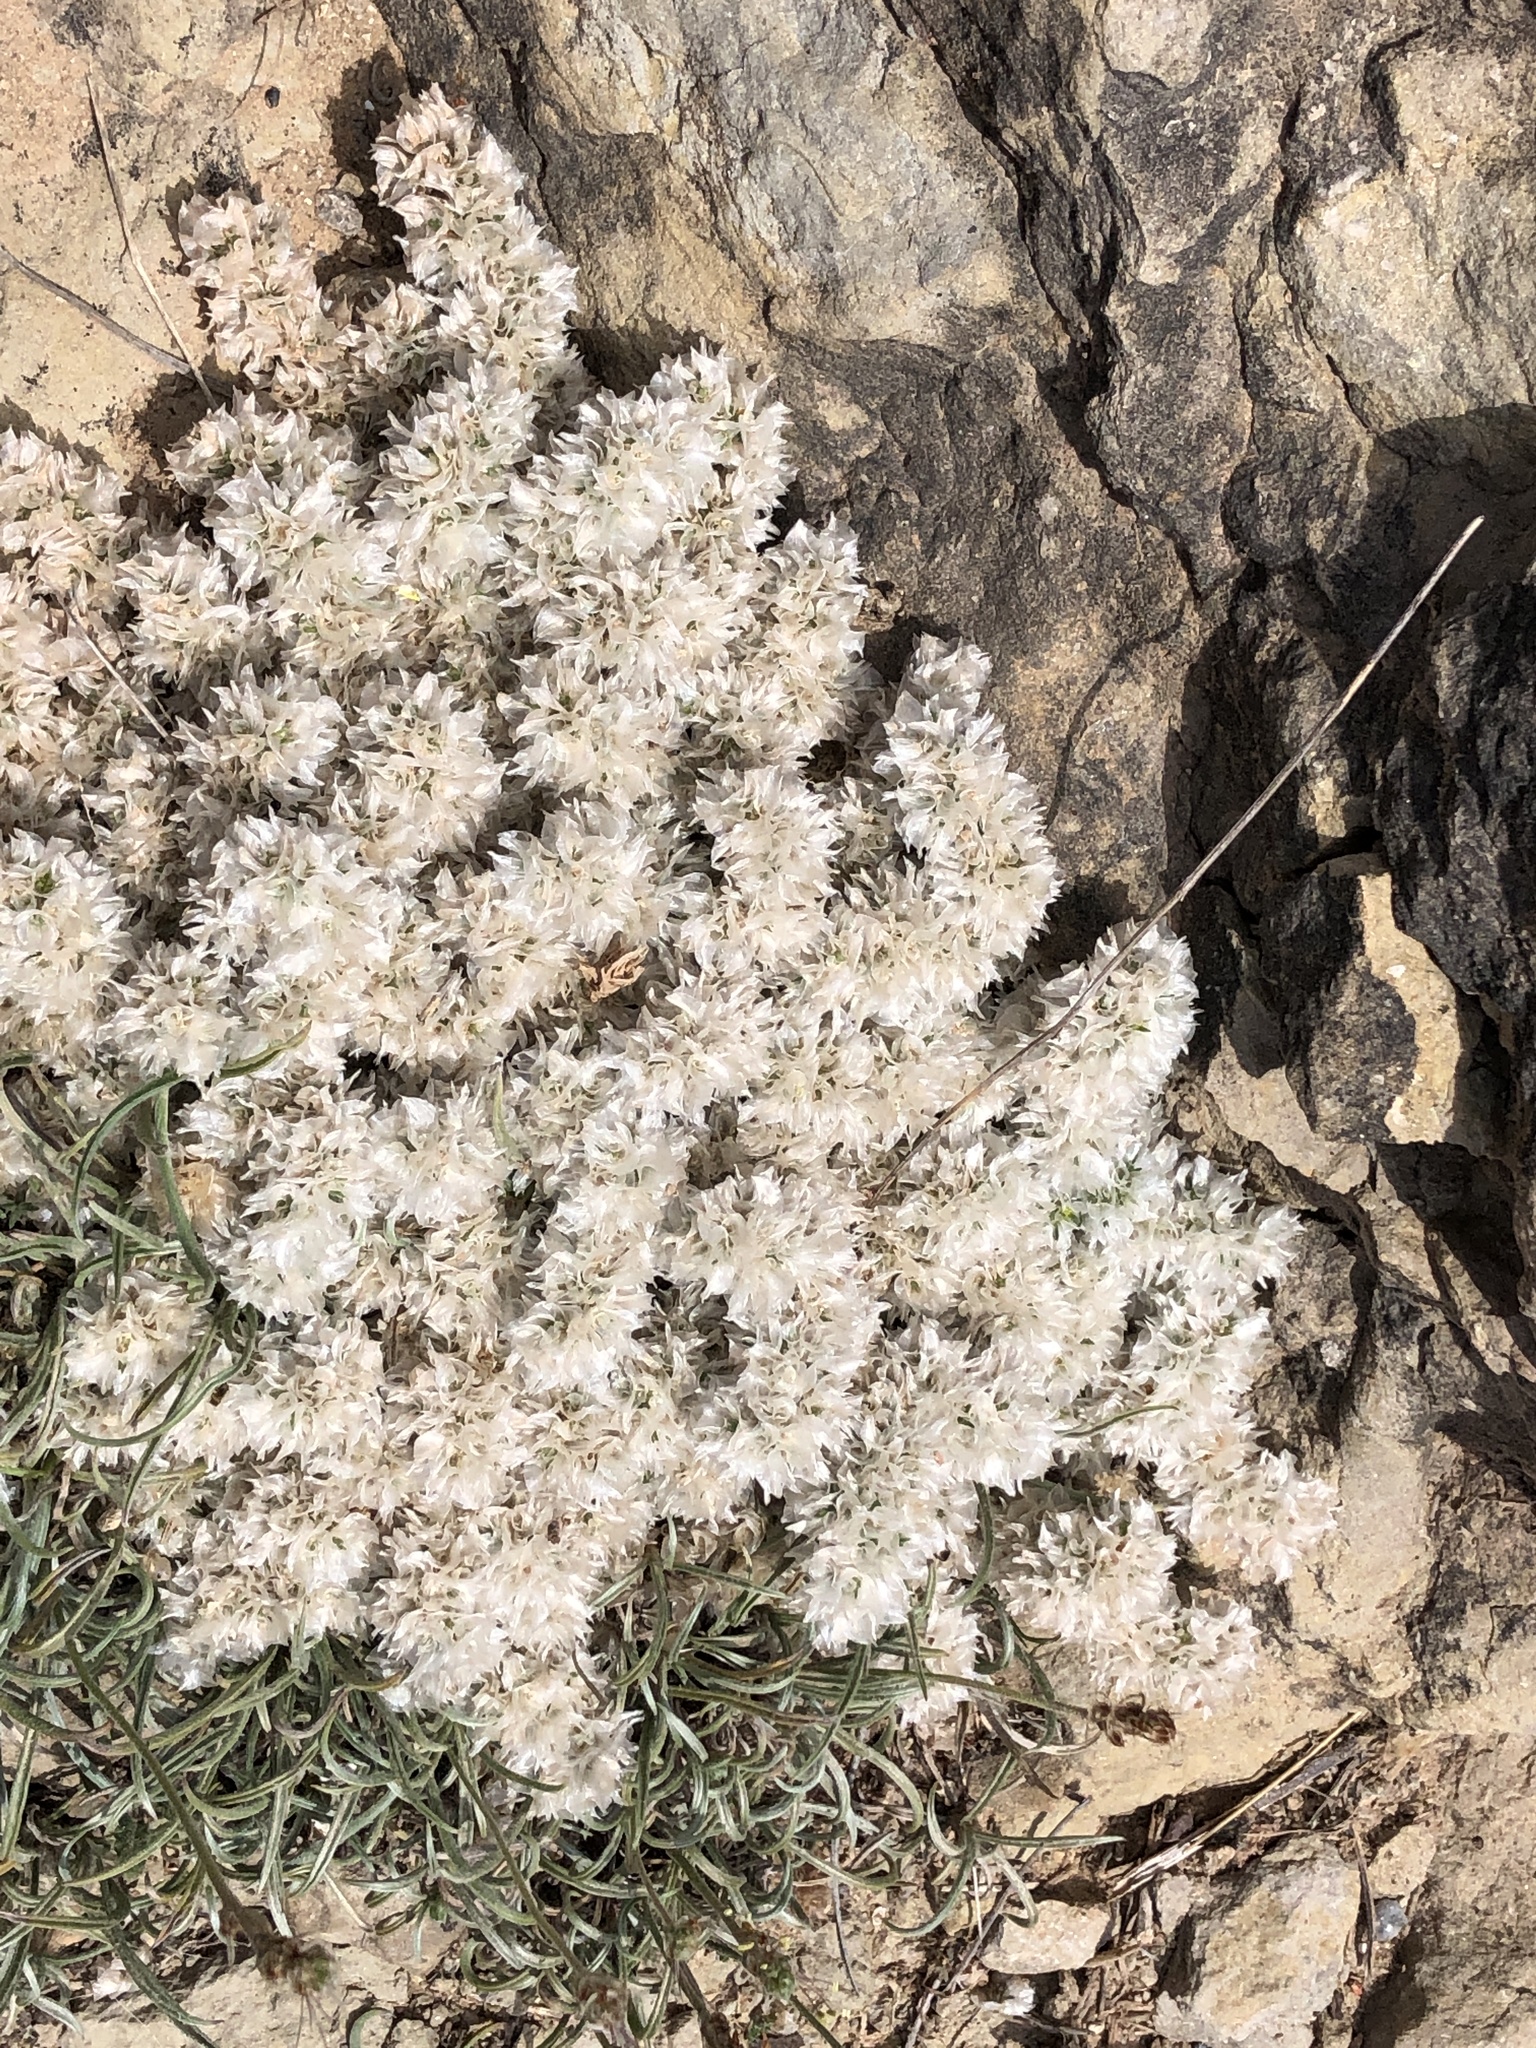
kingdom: Plantae
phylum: Tracheophyta
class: Magnoliopsida
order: Caryophyllales
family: Caryophyllaceae
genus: Paronychia
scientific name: Paronychia argentea
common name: Silver nailroot
